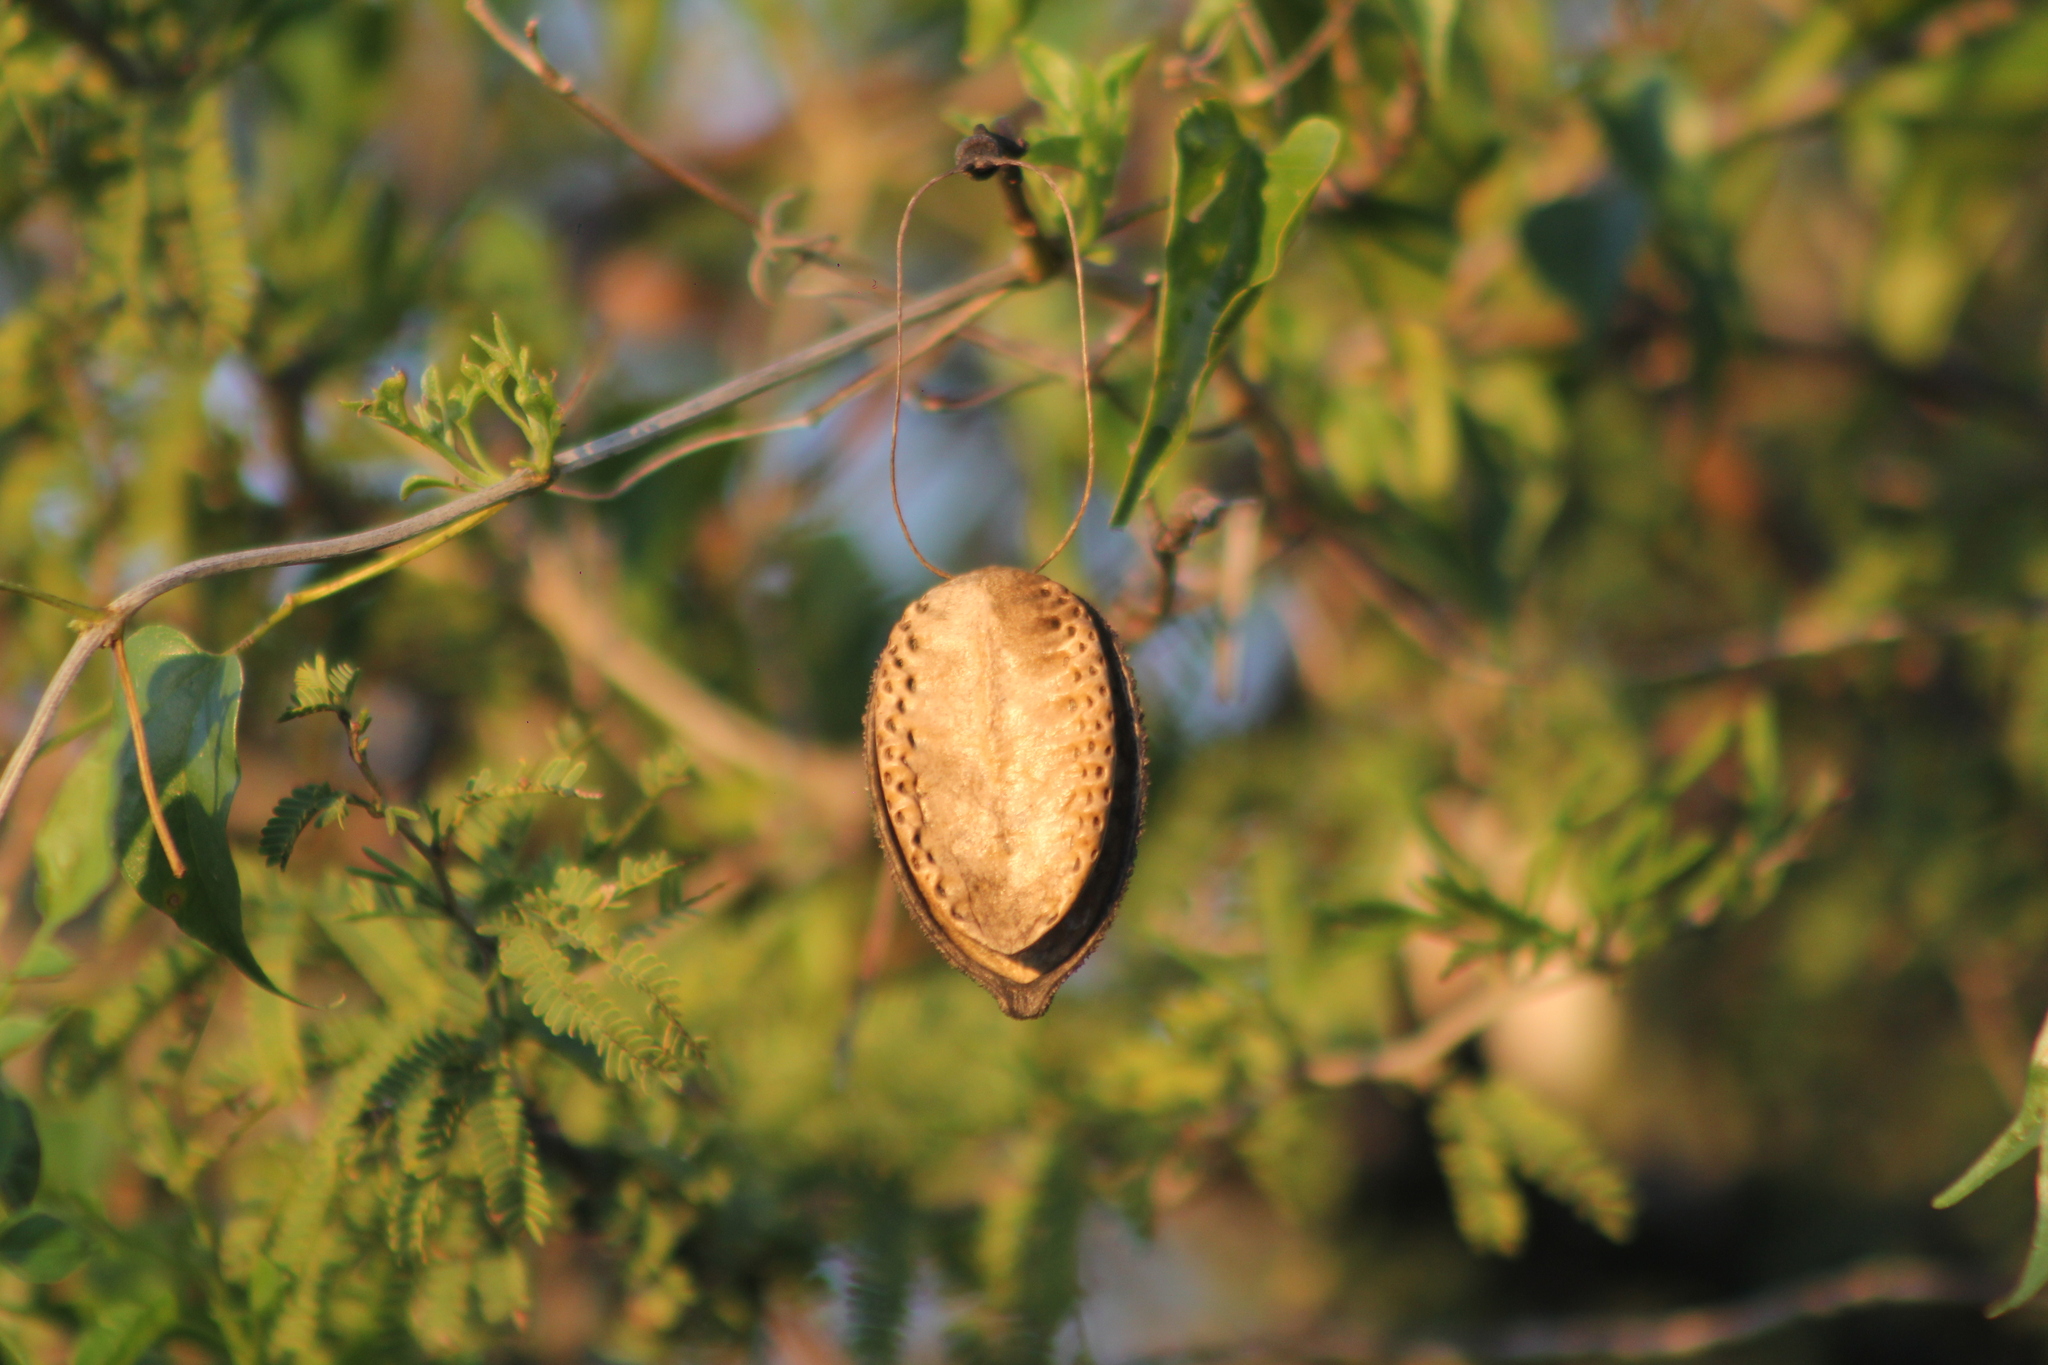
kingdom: Plantae
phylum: Tracheophyta
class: Magnoliopsida
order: Lamiales
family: Bignoniaceae
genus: Amphilophium
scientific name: Amphilophium carolinae
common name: Monkey's-comb
